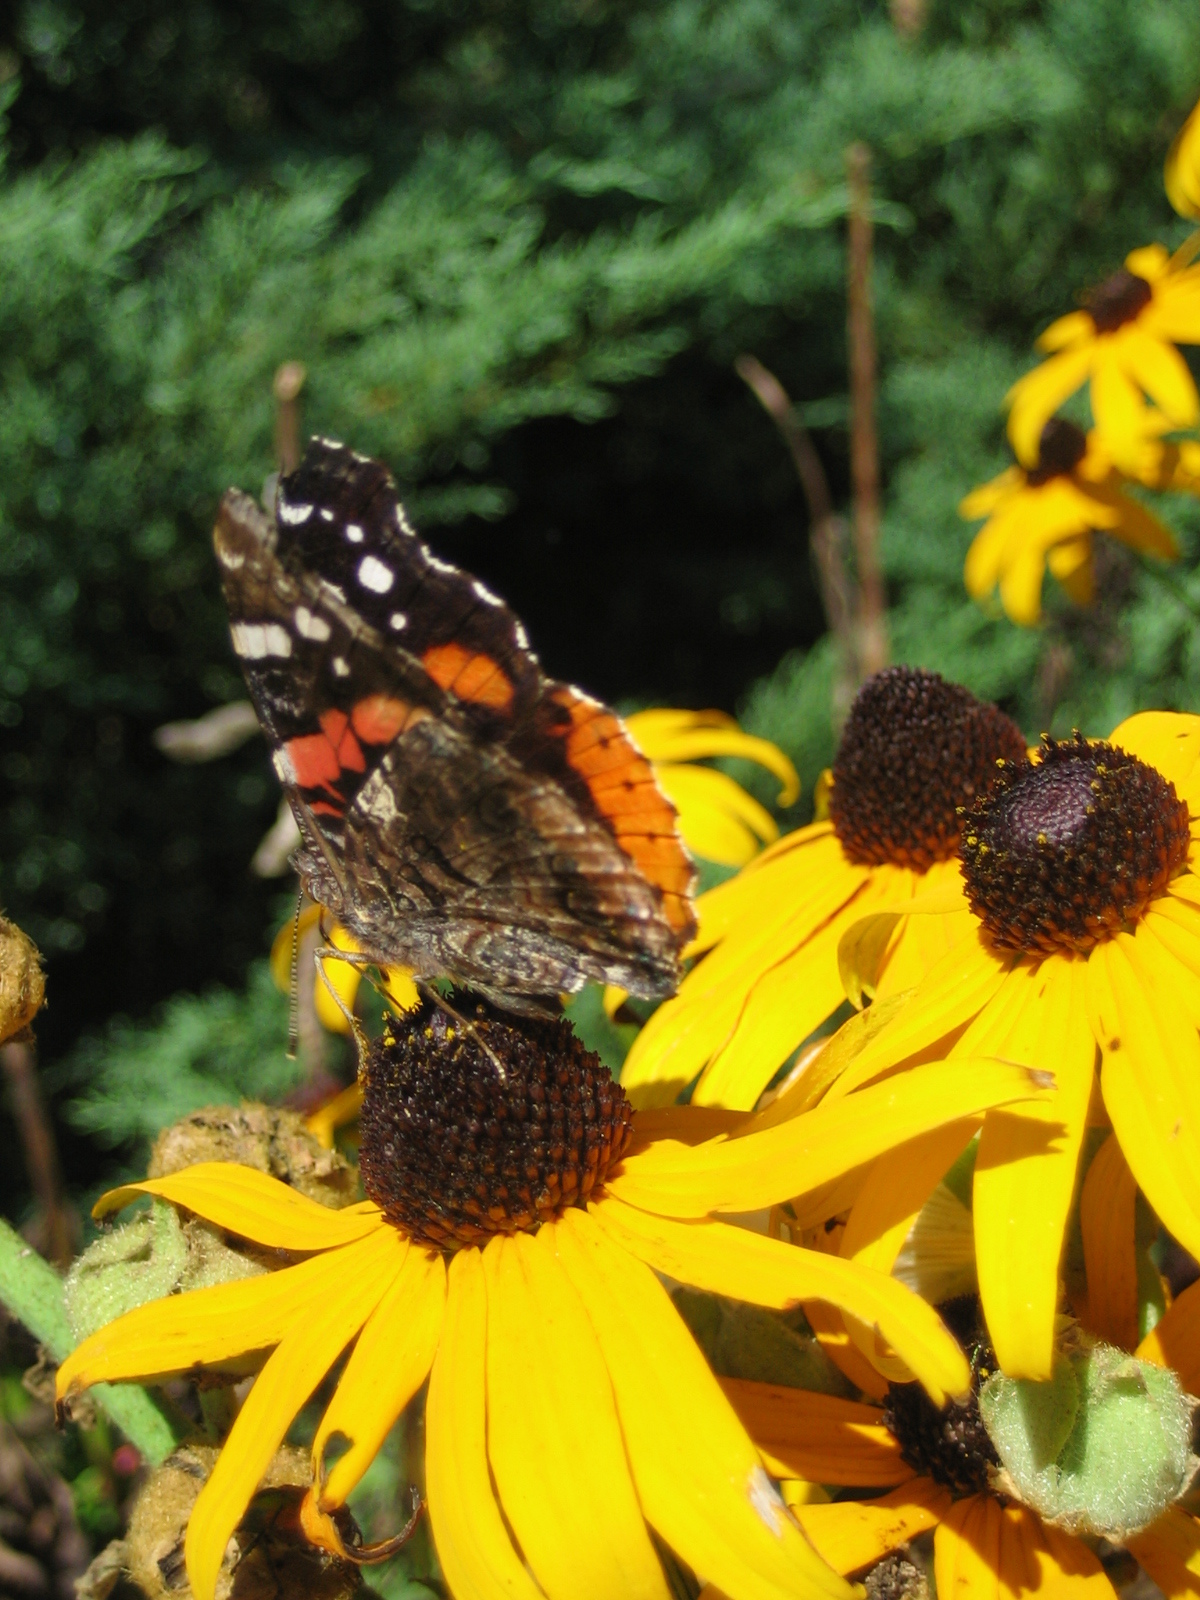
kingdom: Animalia
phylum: Arthropoda
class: Insecta
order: Lepidoptera
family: Nymphalidae
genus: Vanessa
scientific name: Vanessa atalanta
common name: Red admiral
